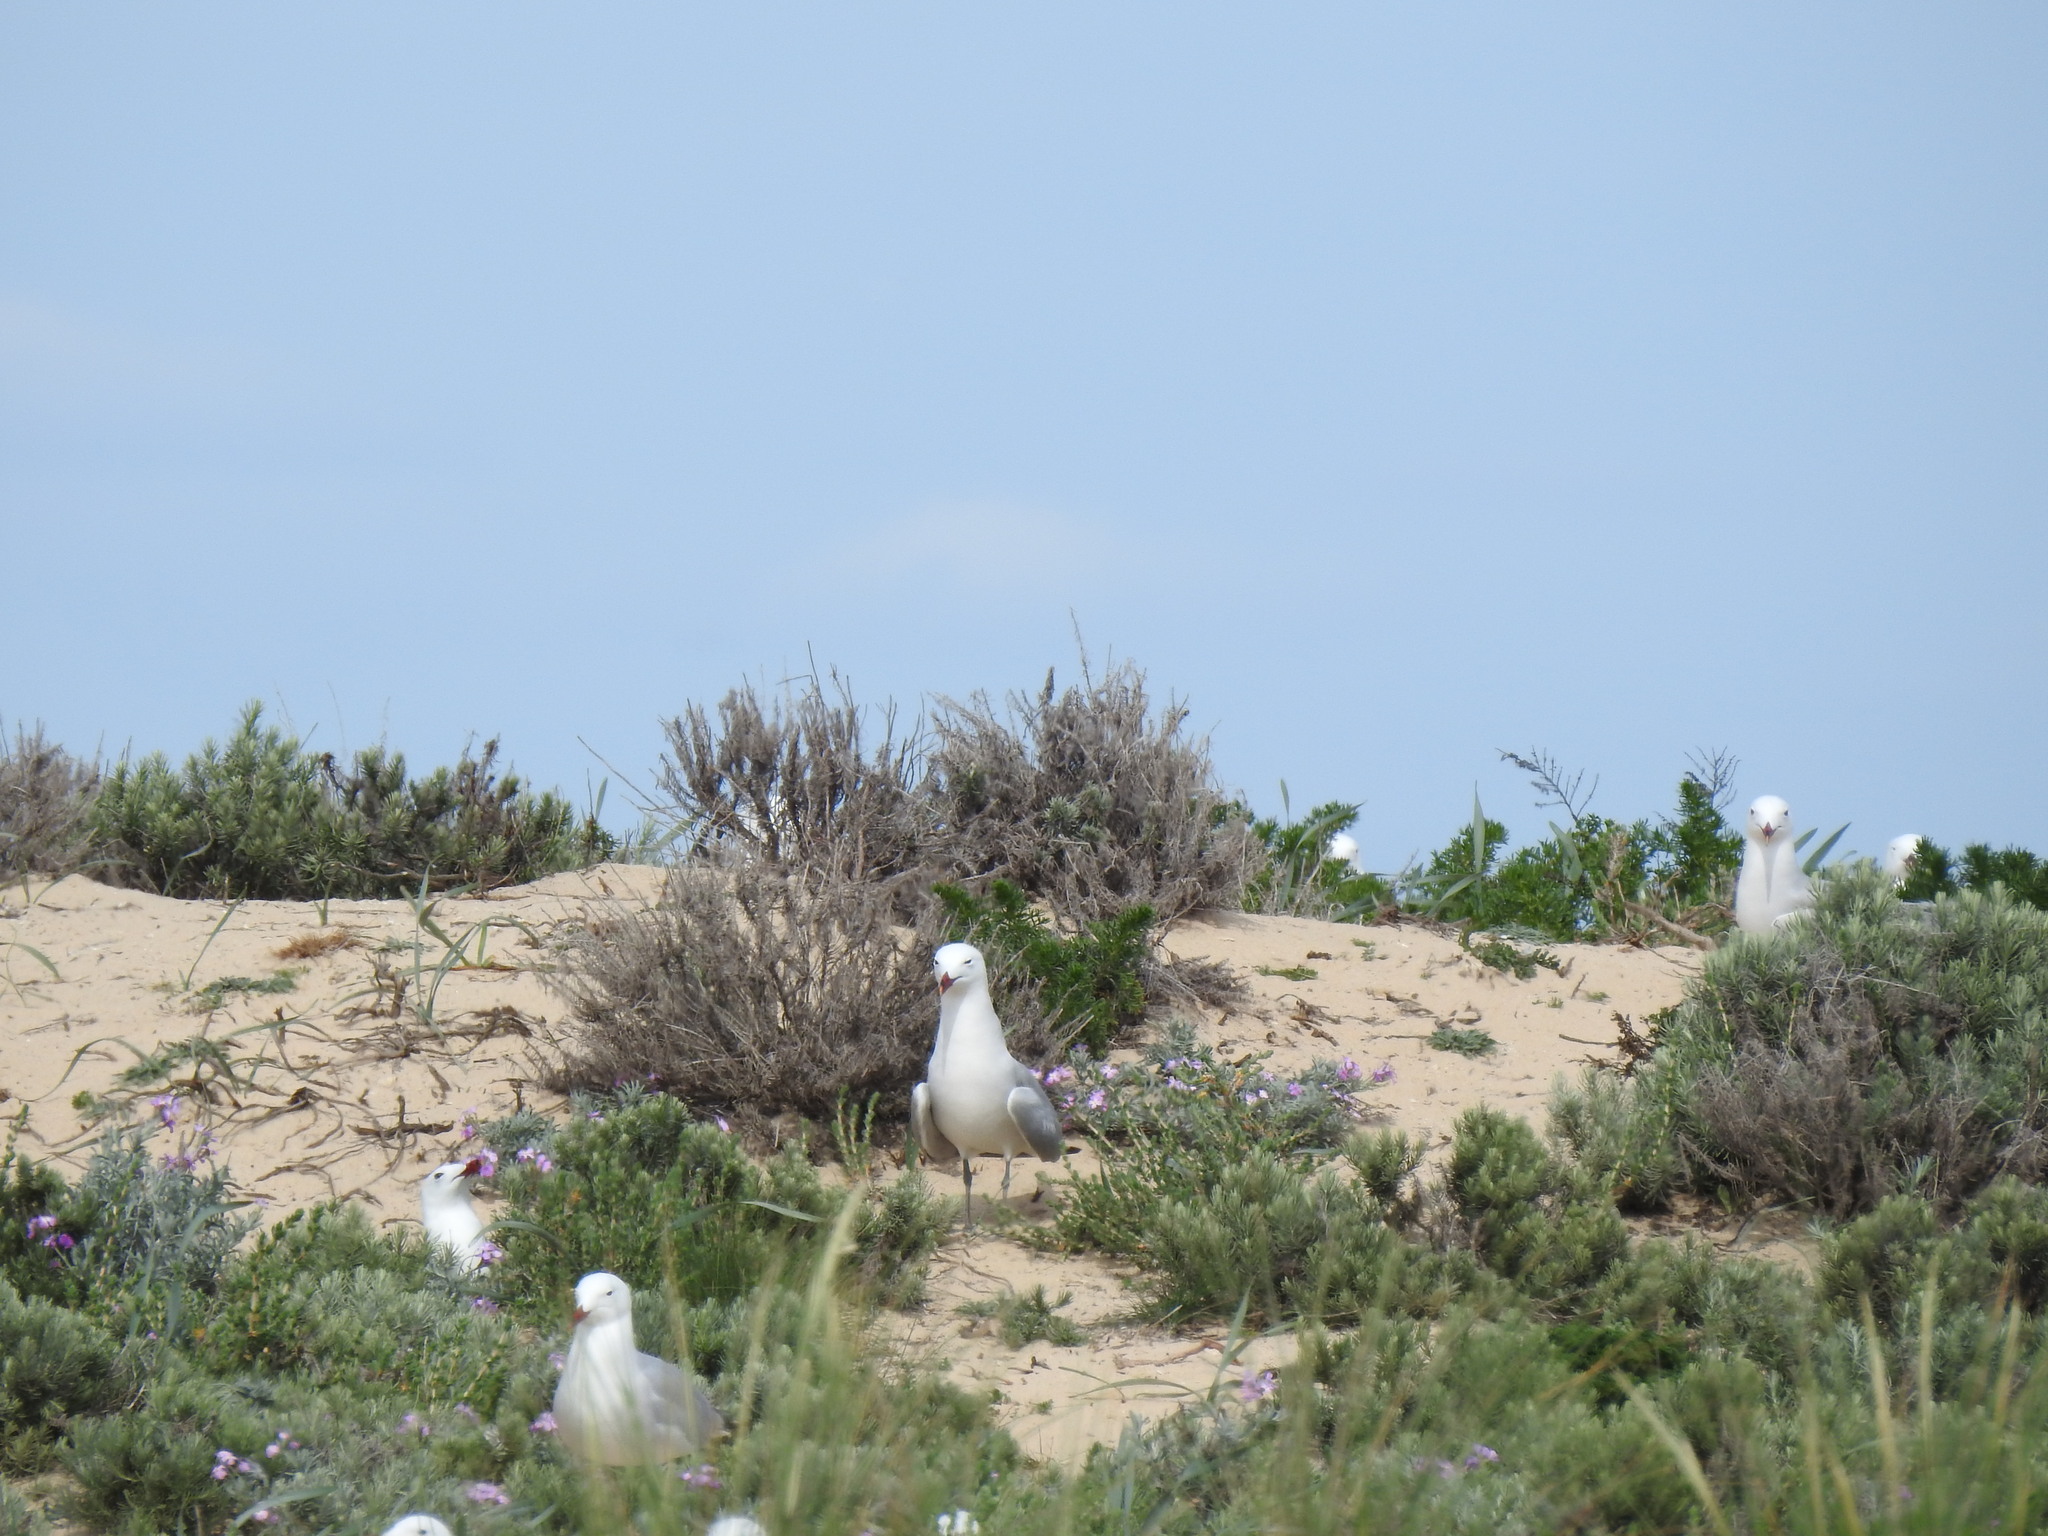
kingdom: Animalia
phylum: Chordata
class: Aves
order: Charadriiformes
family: Laridae
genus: Ichthyaetus
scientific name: Ichthyaetus audouinii
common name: Audouin's gull
